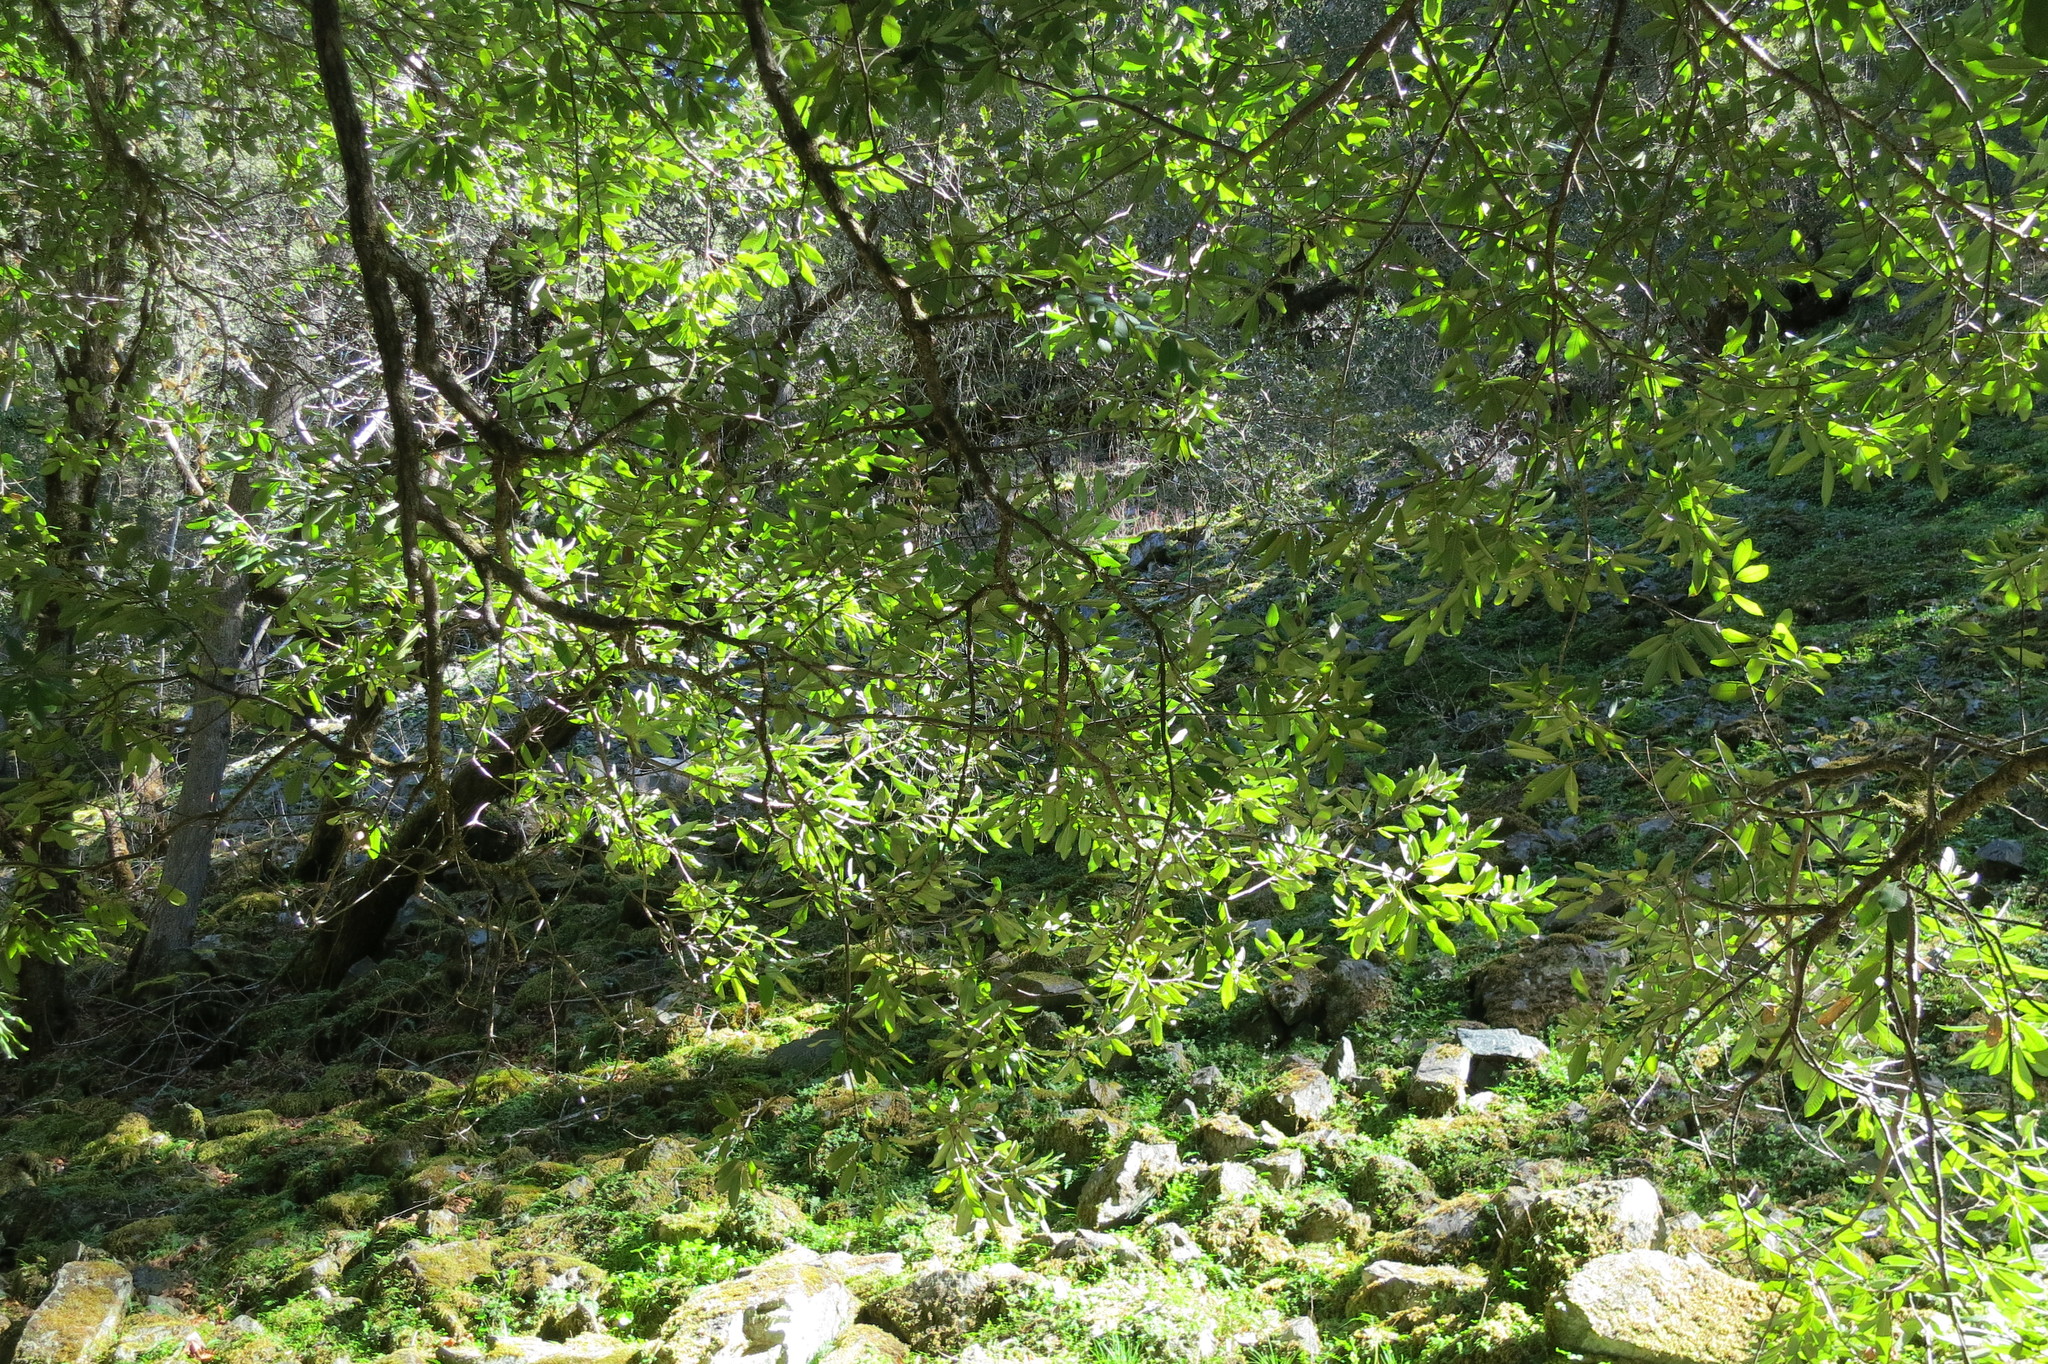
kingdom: Plantae
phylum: Tracheophyta
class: Magnoliopsida
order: Fagales
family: Fagaceae
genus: Notholithocarpus
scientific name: Notholithocarpus densiflorus
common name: Tan bark oak
